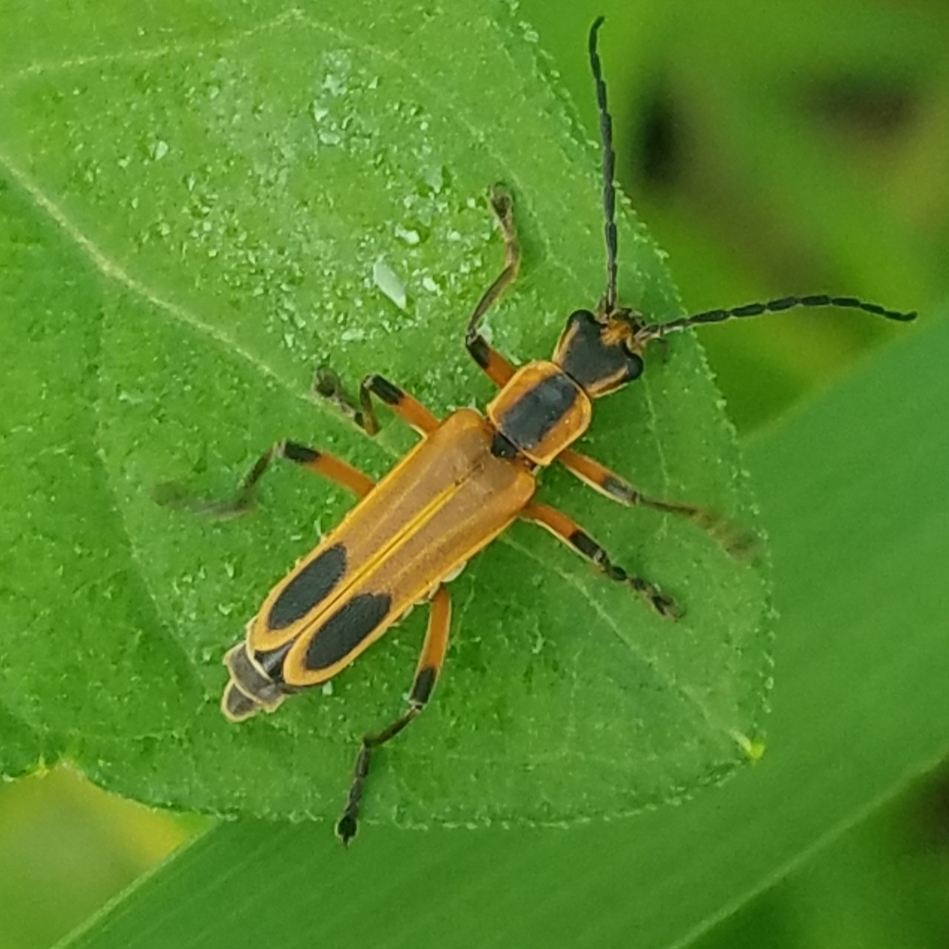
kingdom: Animalia
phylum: Arthropoda
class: Insecta
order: Coleoptera
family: Cantharidae
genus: Chauliognathus
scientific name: Chauliognathus marginatus
